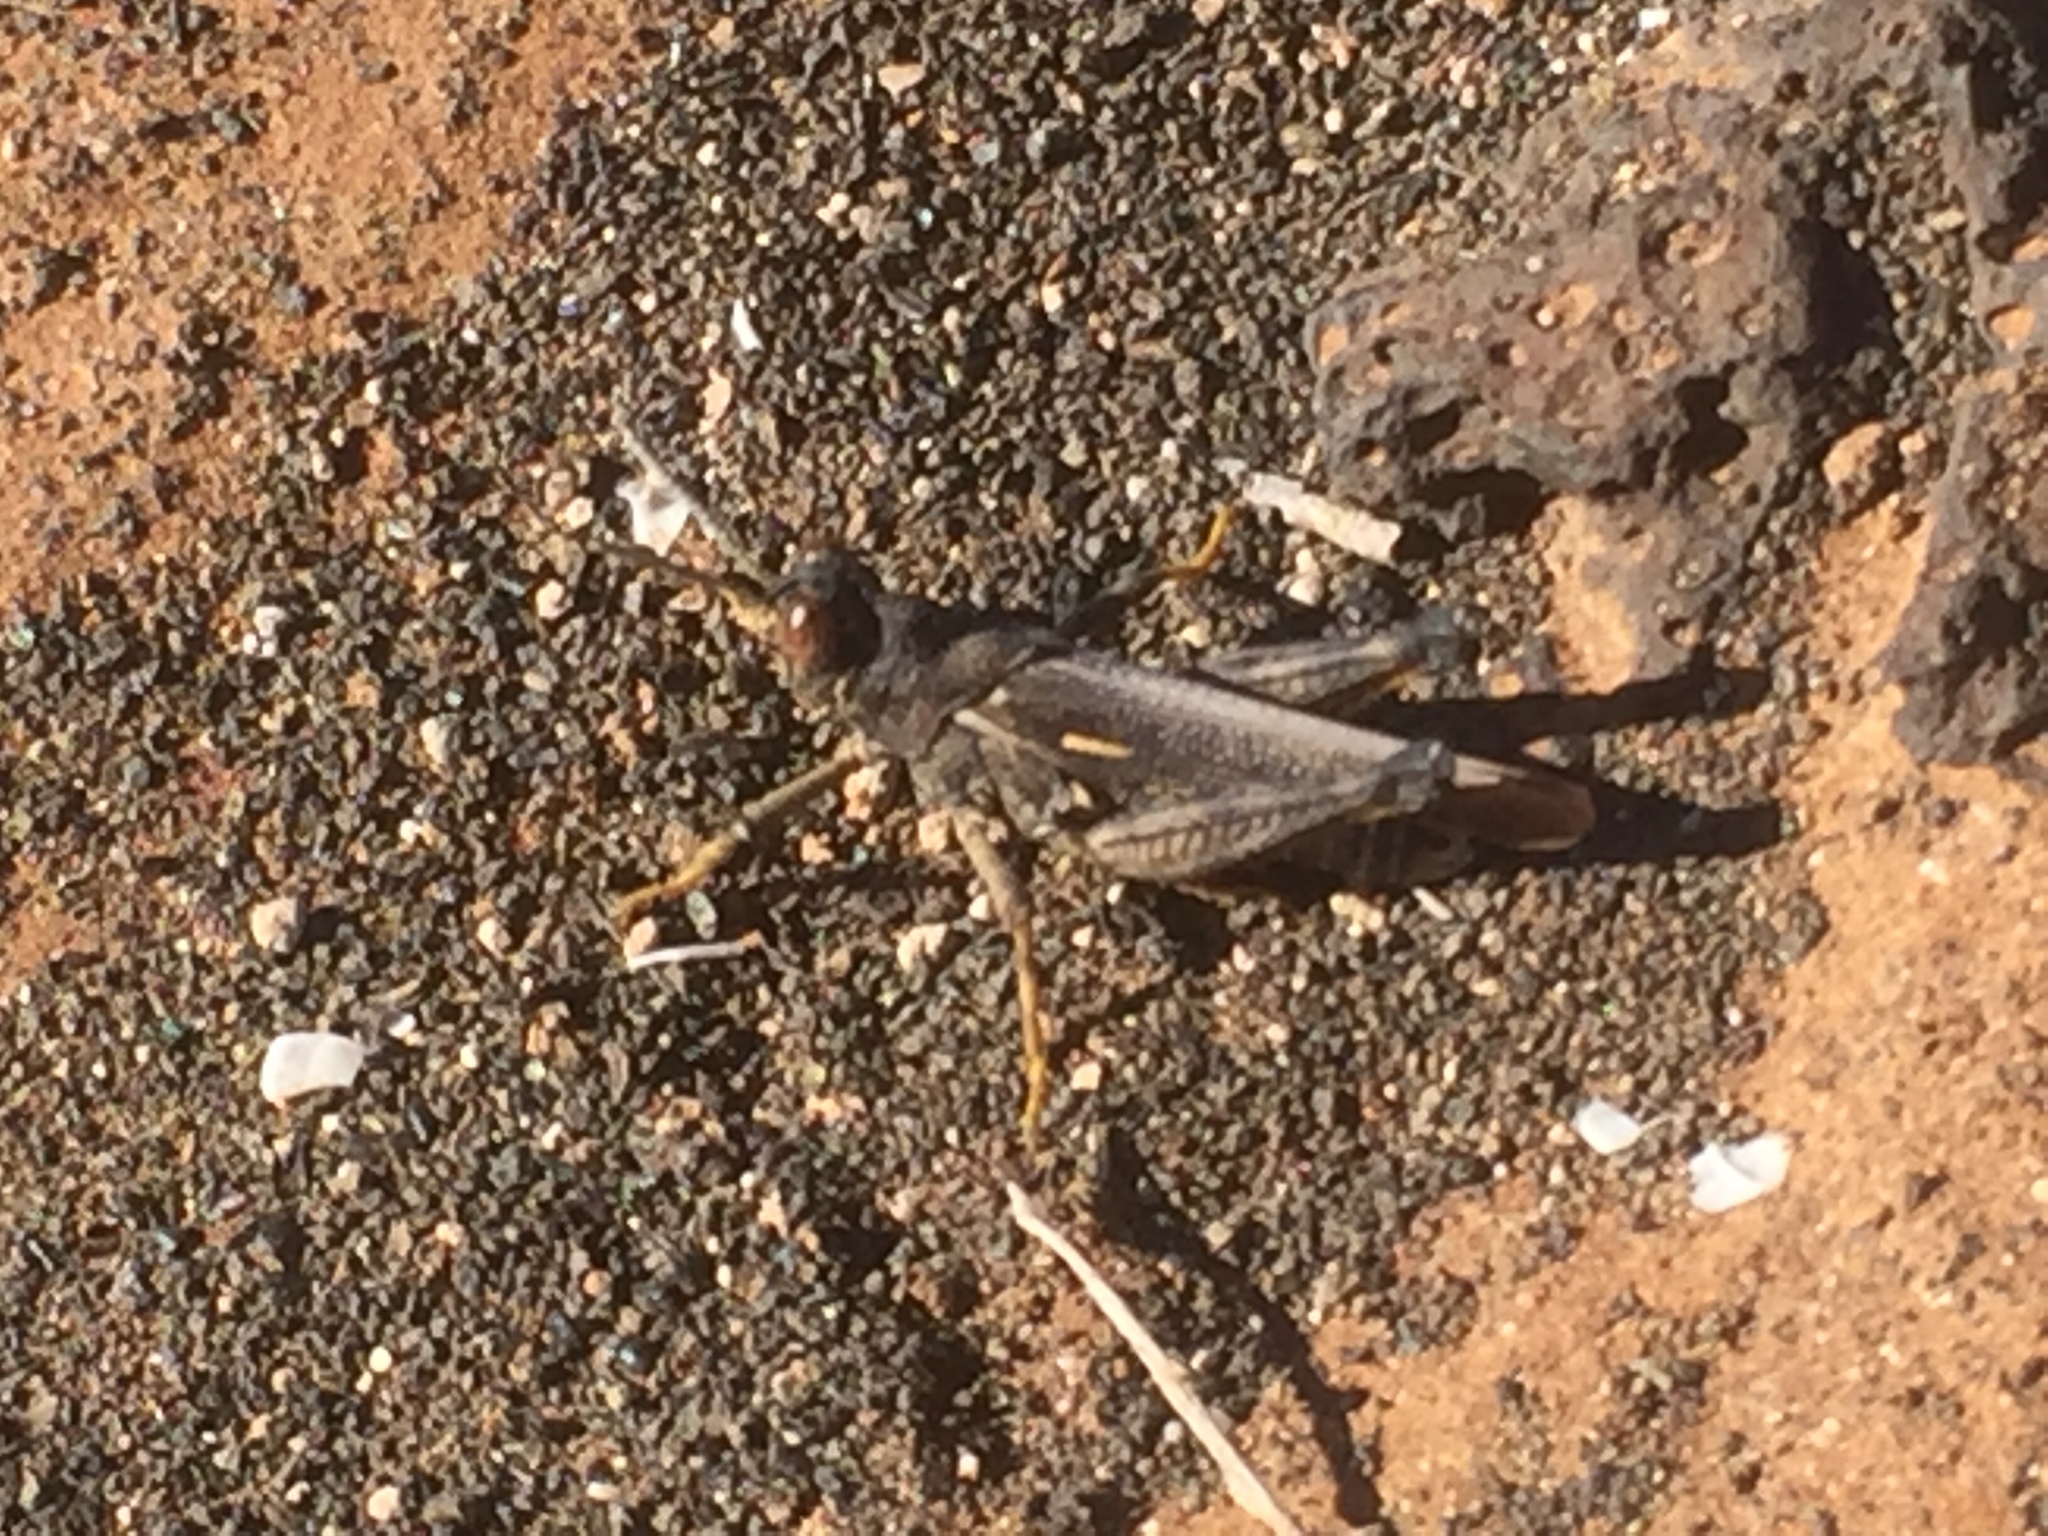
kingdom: Animalia
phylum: Arthropoda
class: Insecta
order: Orthoptera
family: Dericorythidae
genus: Dericorys
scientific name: Dericorys lobata
